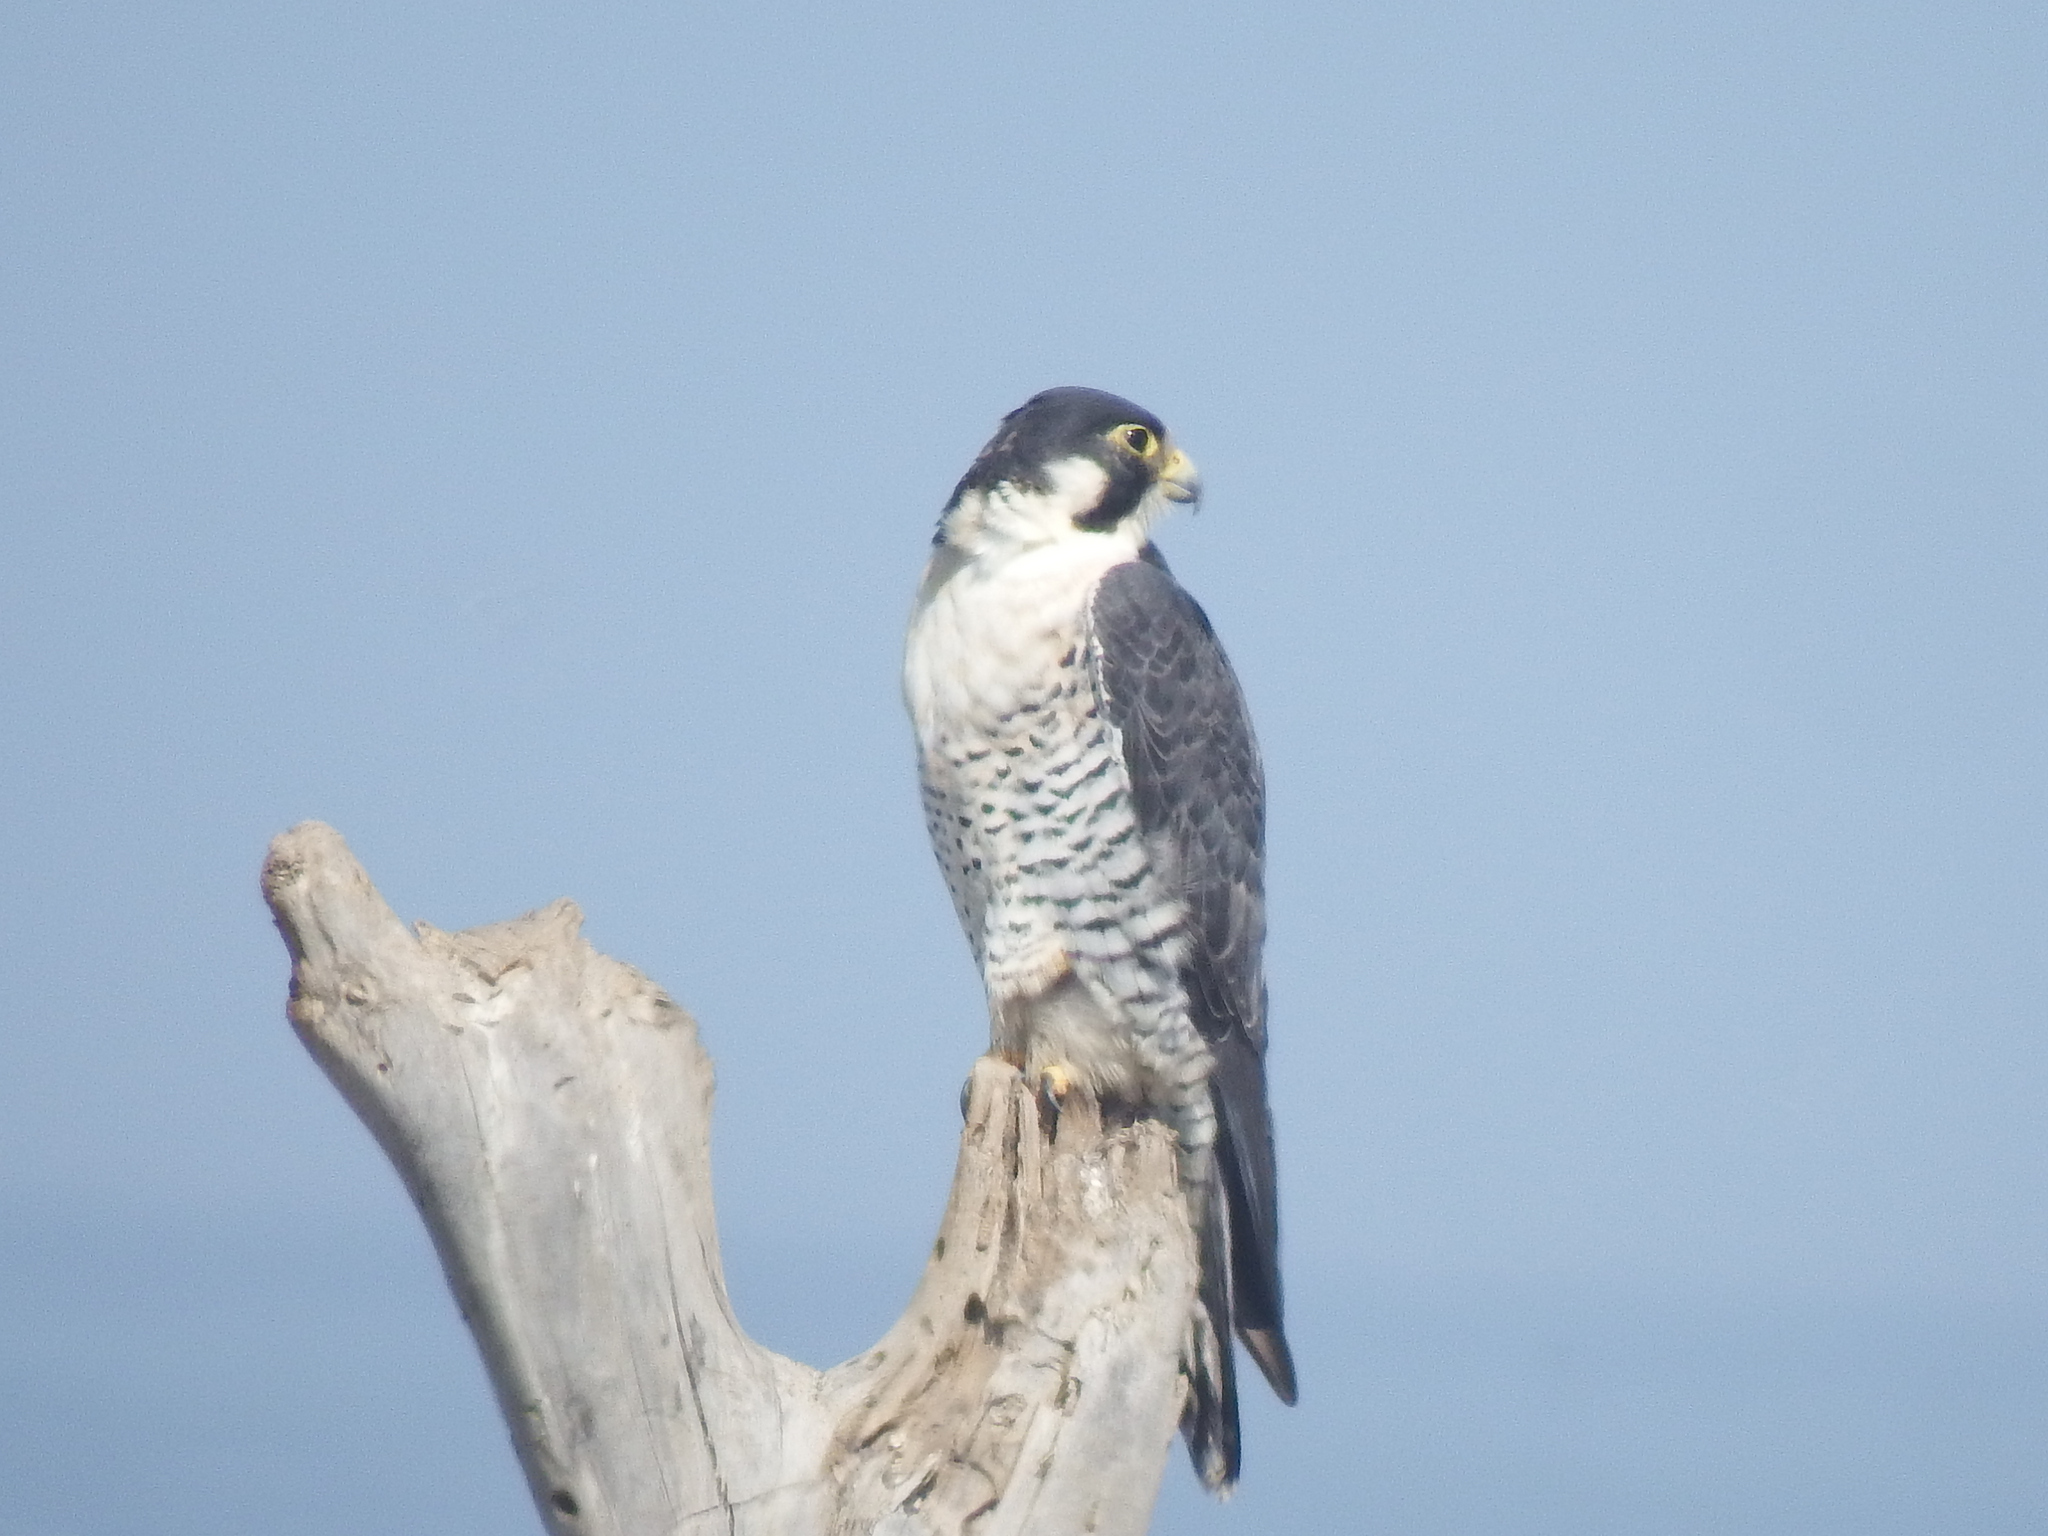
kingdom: Animalia
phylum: Chordata
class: Aves
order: Falconiformes
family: Falconidae
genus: Falco
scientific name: Falco peregrinus
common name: Peregrine falcon
